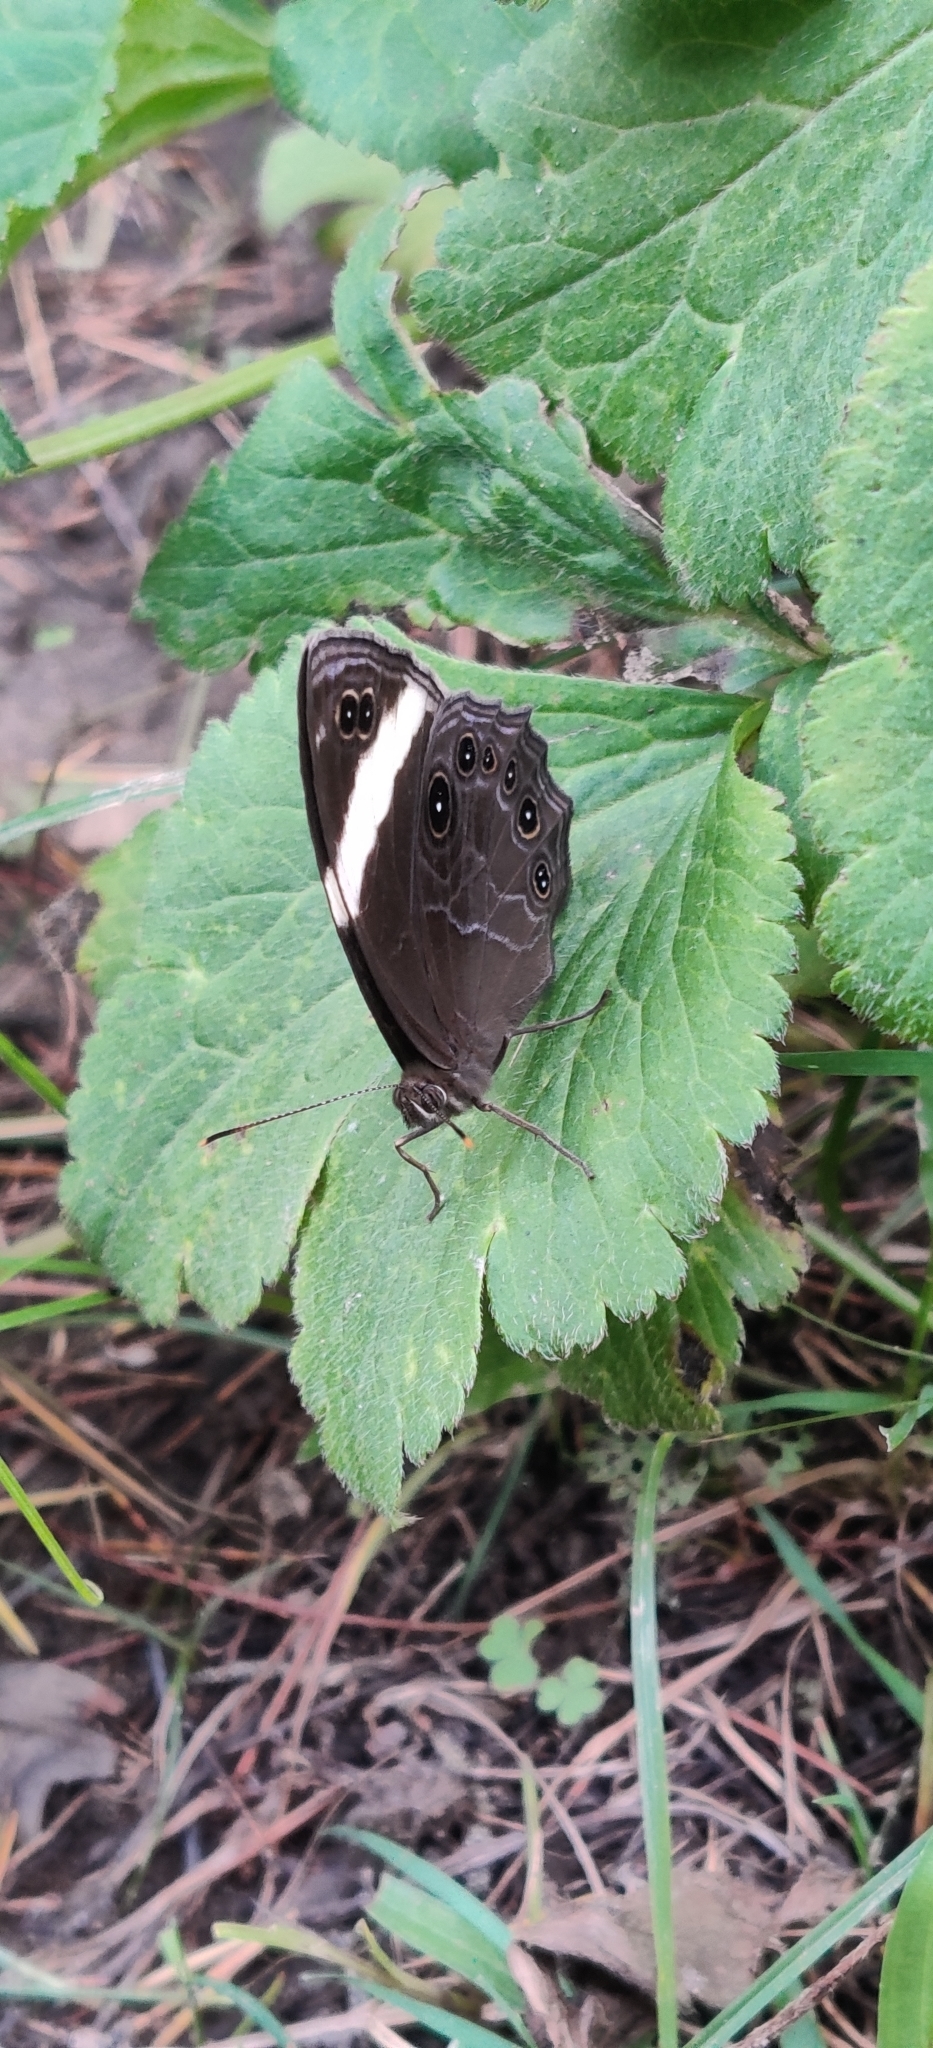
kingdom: Animalia
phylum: Arthropoda
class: Insecta
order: Lepidoptera
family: Nymphalidae
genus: Lethe
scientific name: Lethe verma
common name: Straight-banded treebrown
